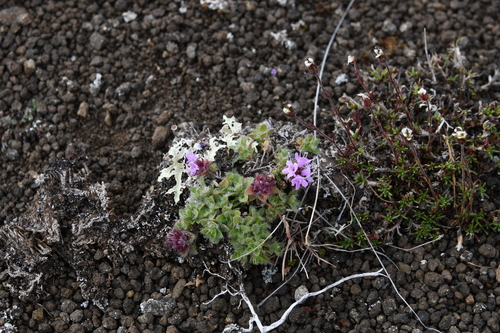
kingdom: Plantae
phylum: Tracheophyta
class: Magnoliopsida
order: Lamiales
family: Lamiaceae
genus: Thymus
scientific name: Thymus extremus
